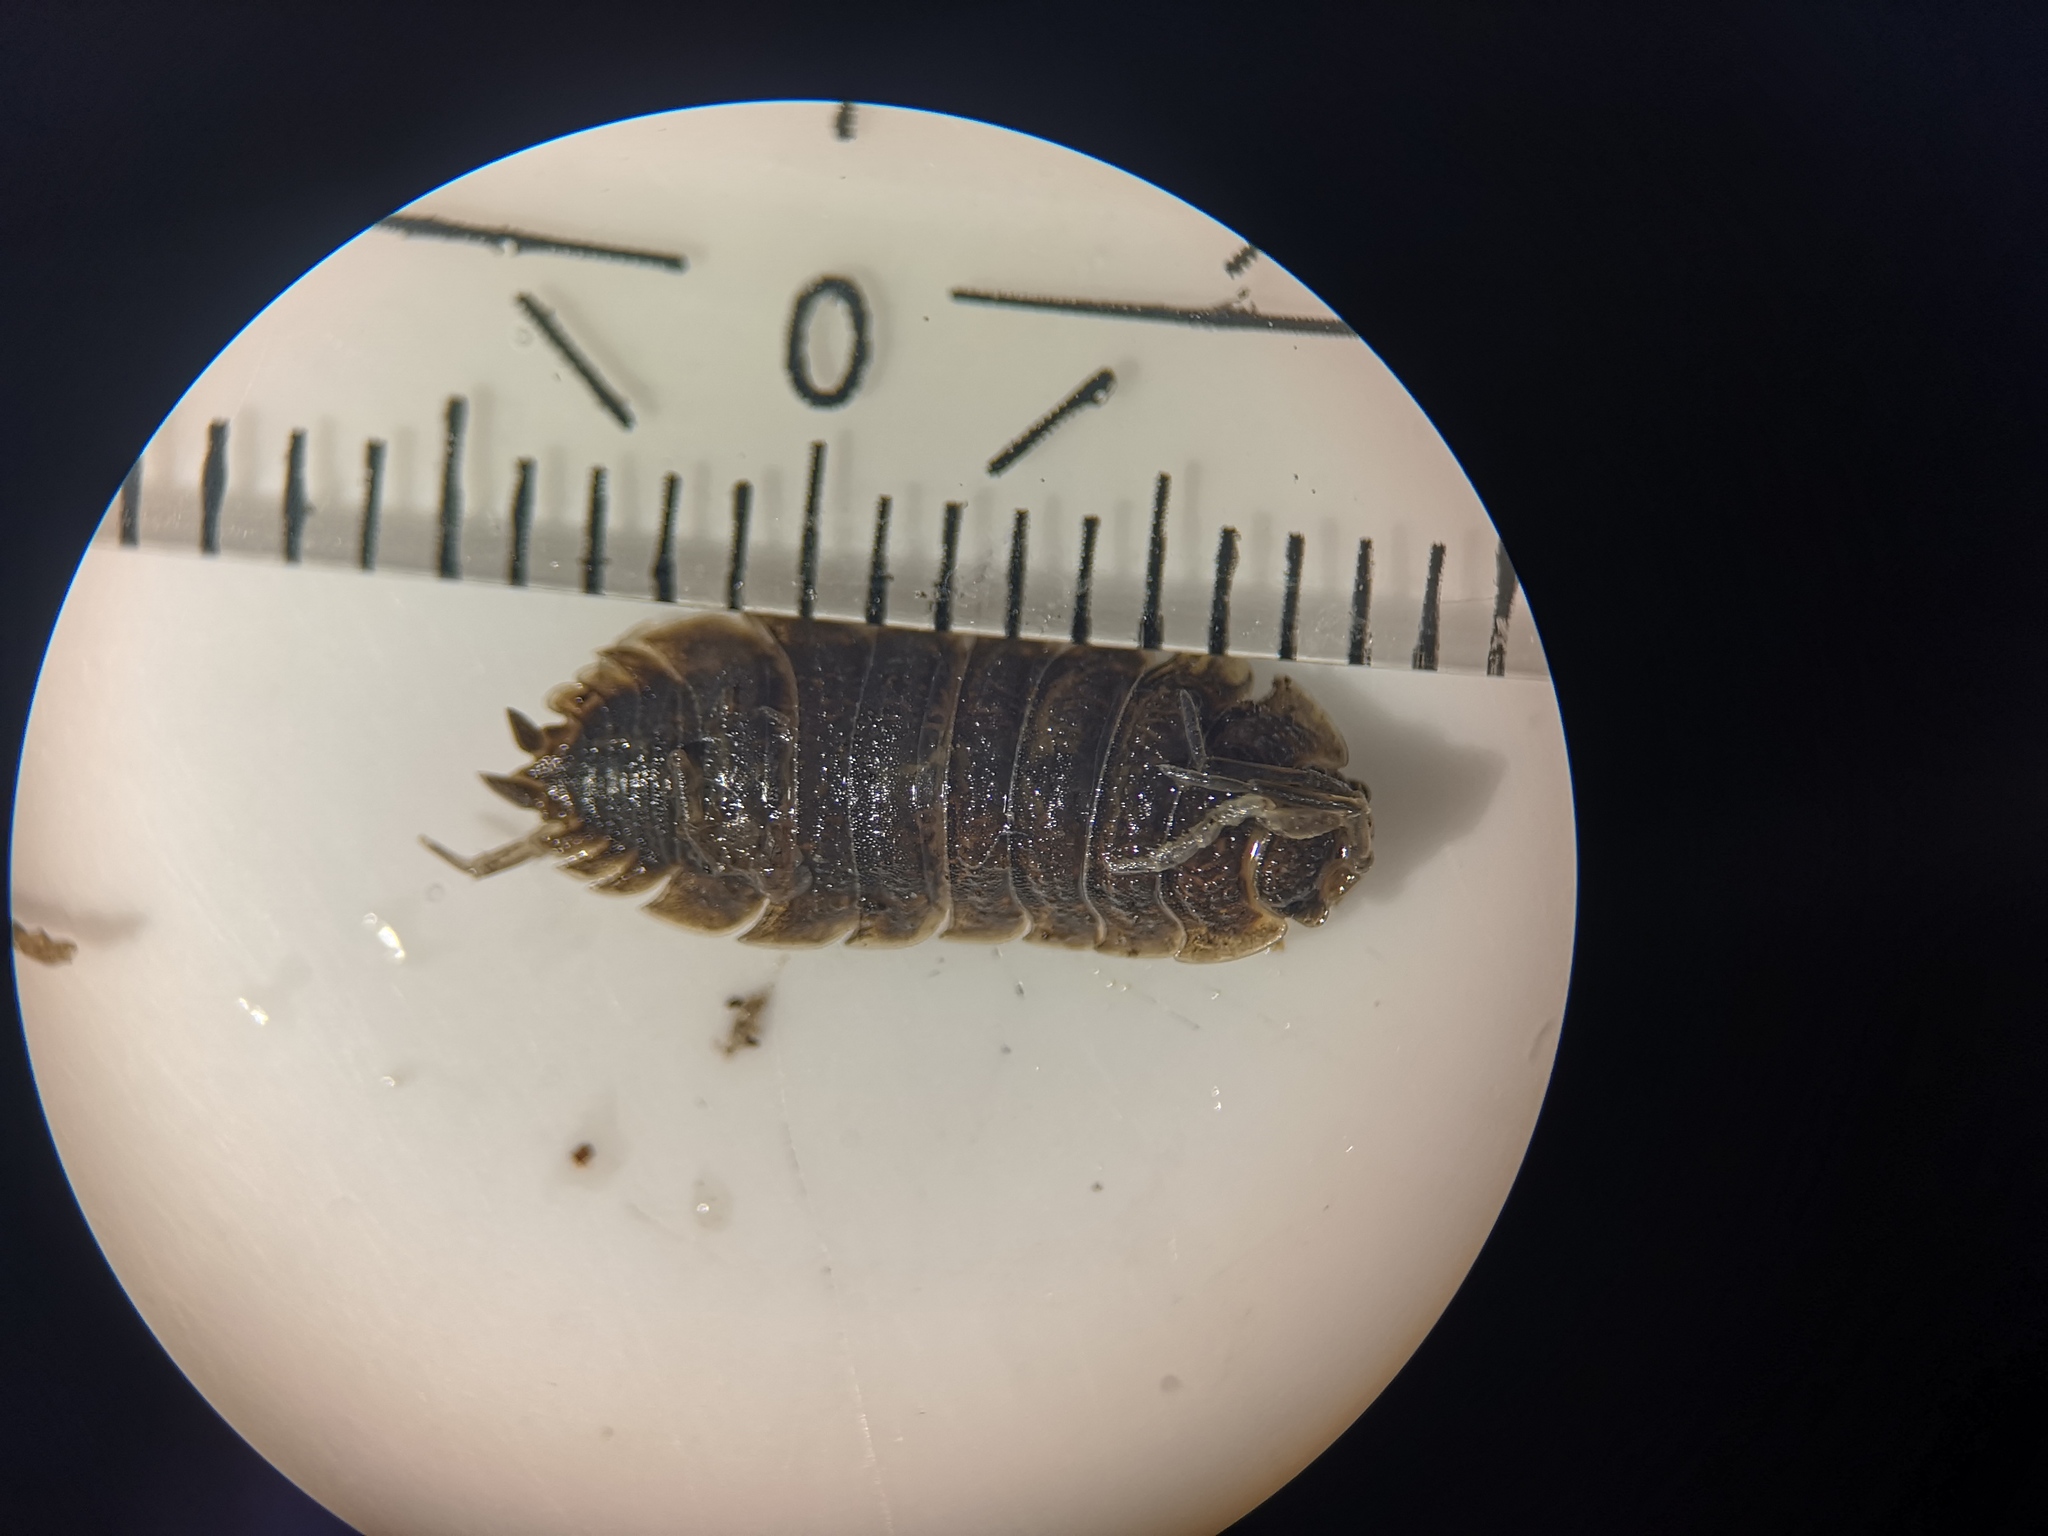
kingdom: Animalia
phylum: Arthropoda
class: Malacostraca
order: Isopoda
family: Porcellionidae
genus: Porcellio
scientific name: Porcellio scaber
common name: Common rough woodlouse
